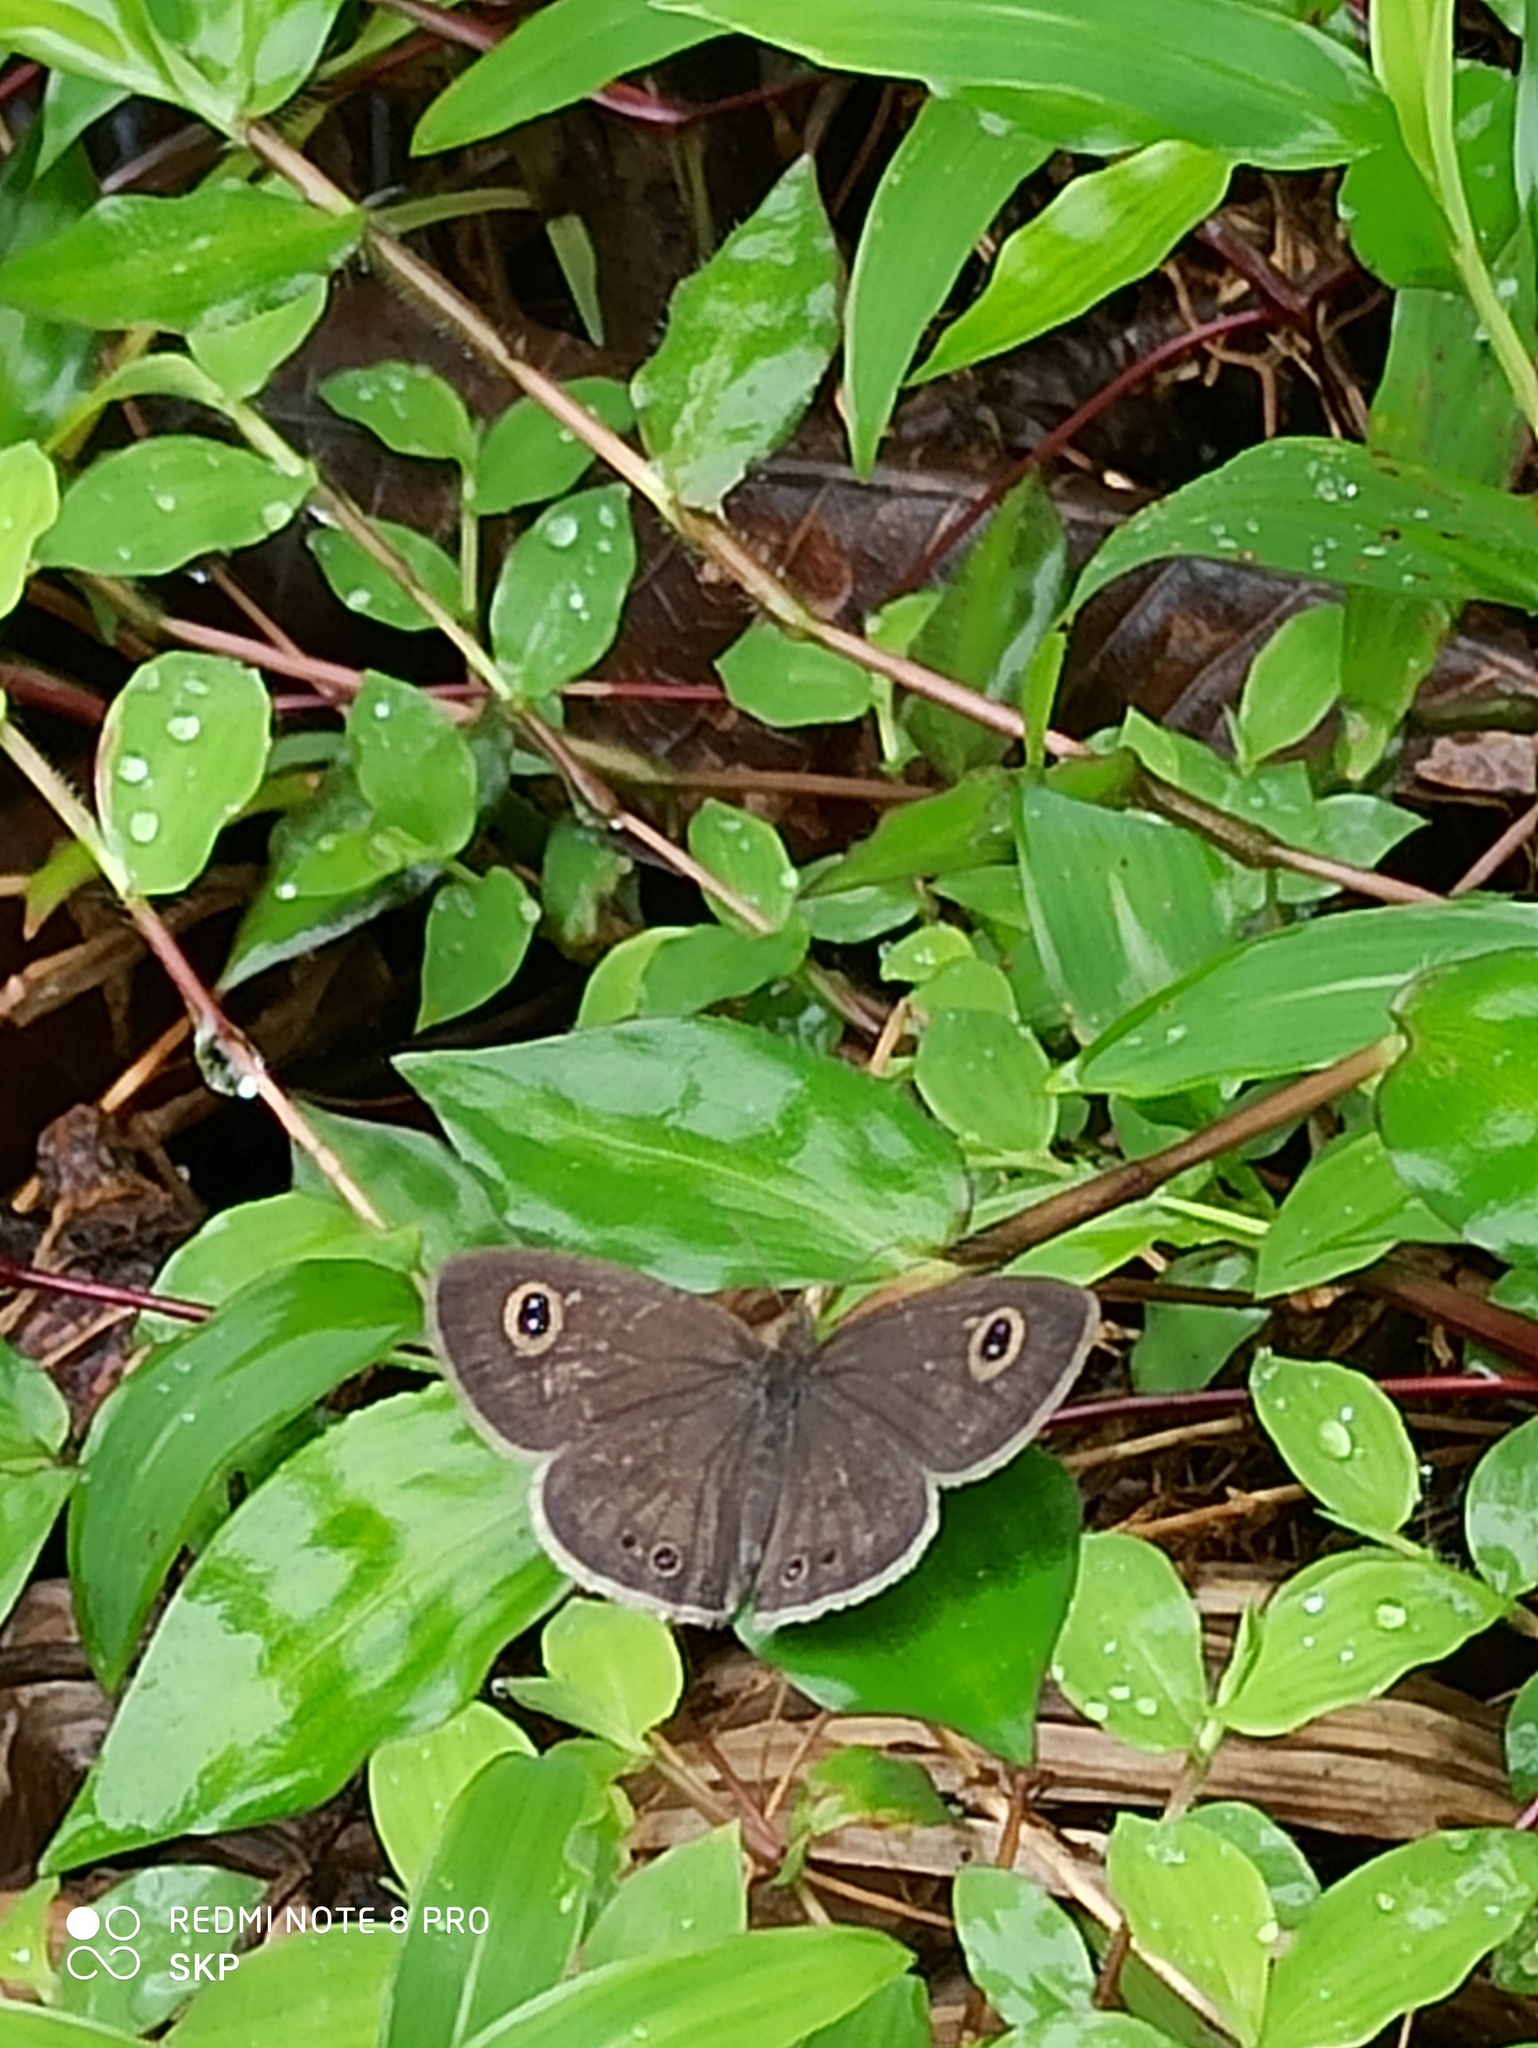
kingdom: Animalia
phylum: Arthropoda
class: Insecta
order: Lepidoptera
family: Nymphalidae
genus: Ypthima
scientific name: Ypthima huebneri
